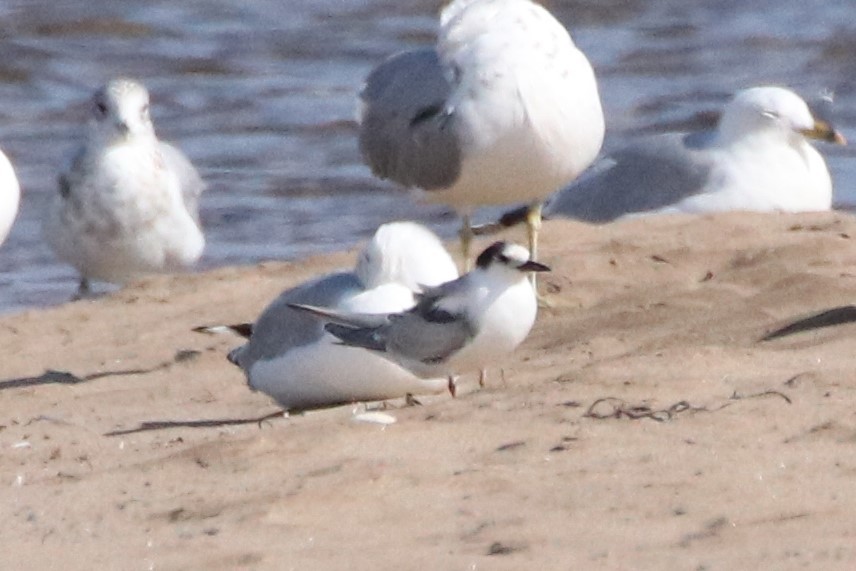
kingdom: Animalia
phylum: Chordata
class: Aves
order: Charadriiformes
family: Laridae
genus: Sterna
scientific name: Sterna hirundo
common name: Common tern
